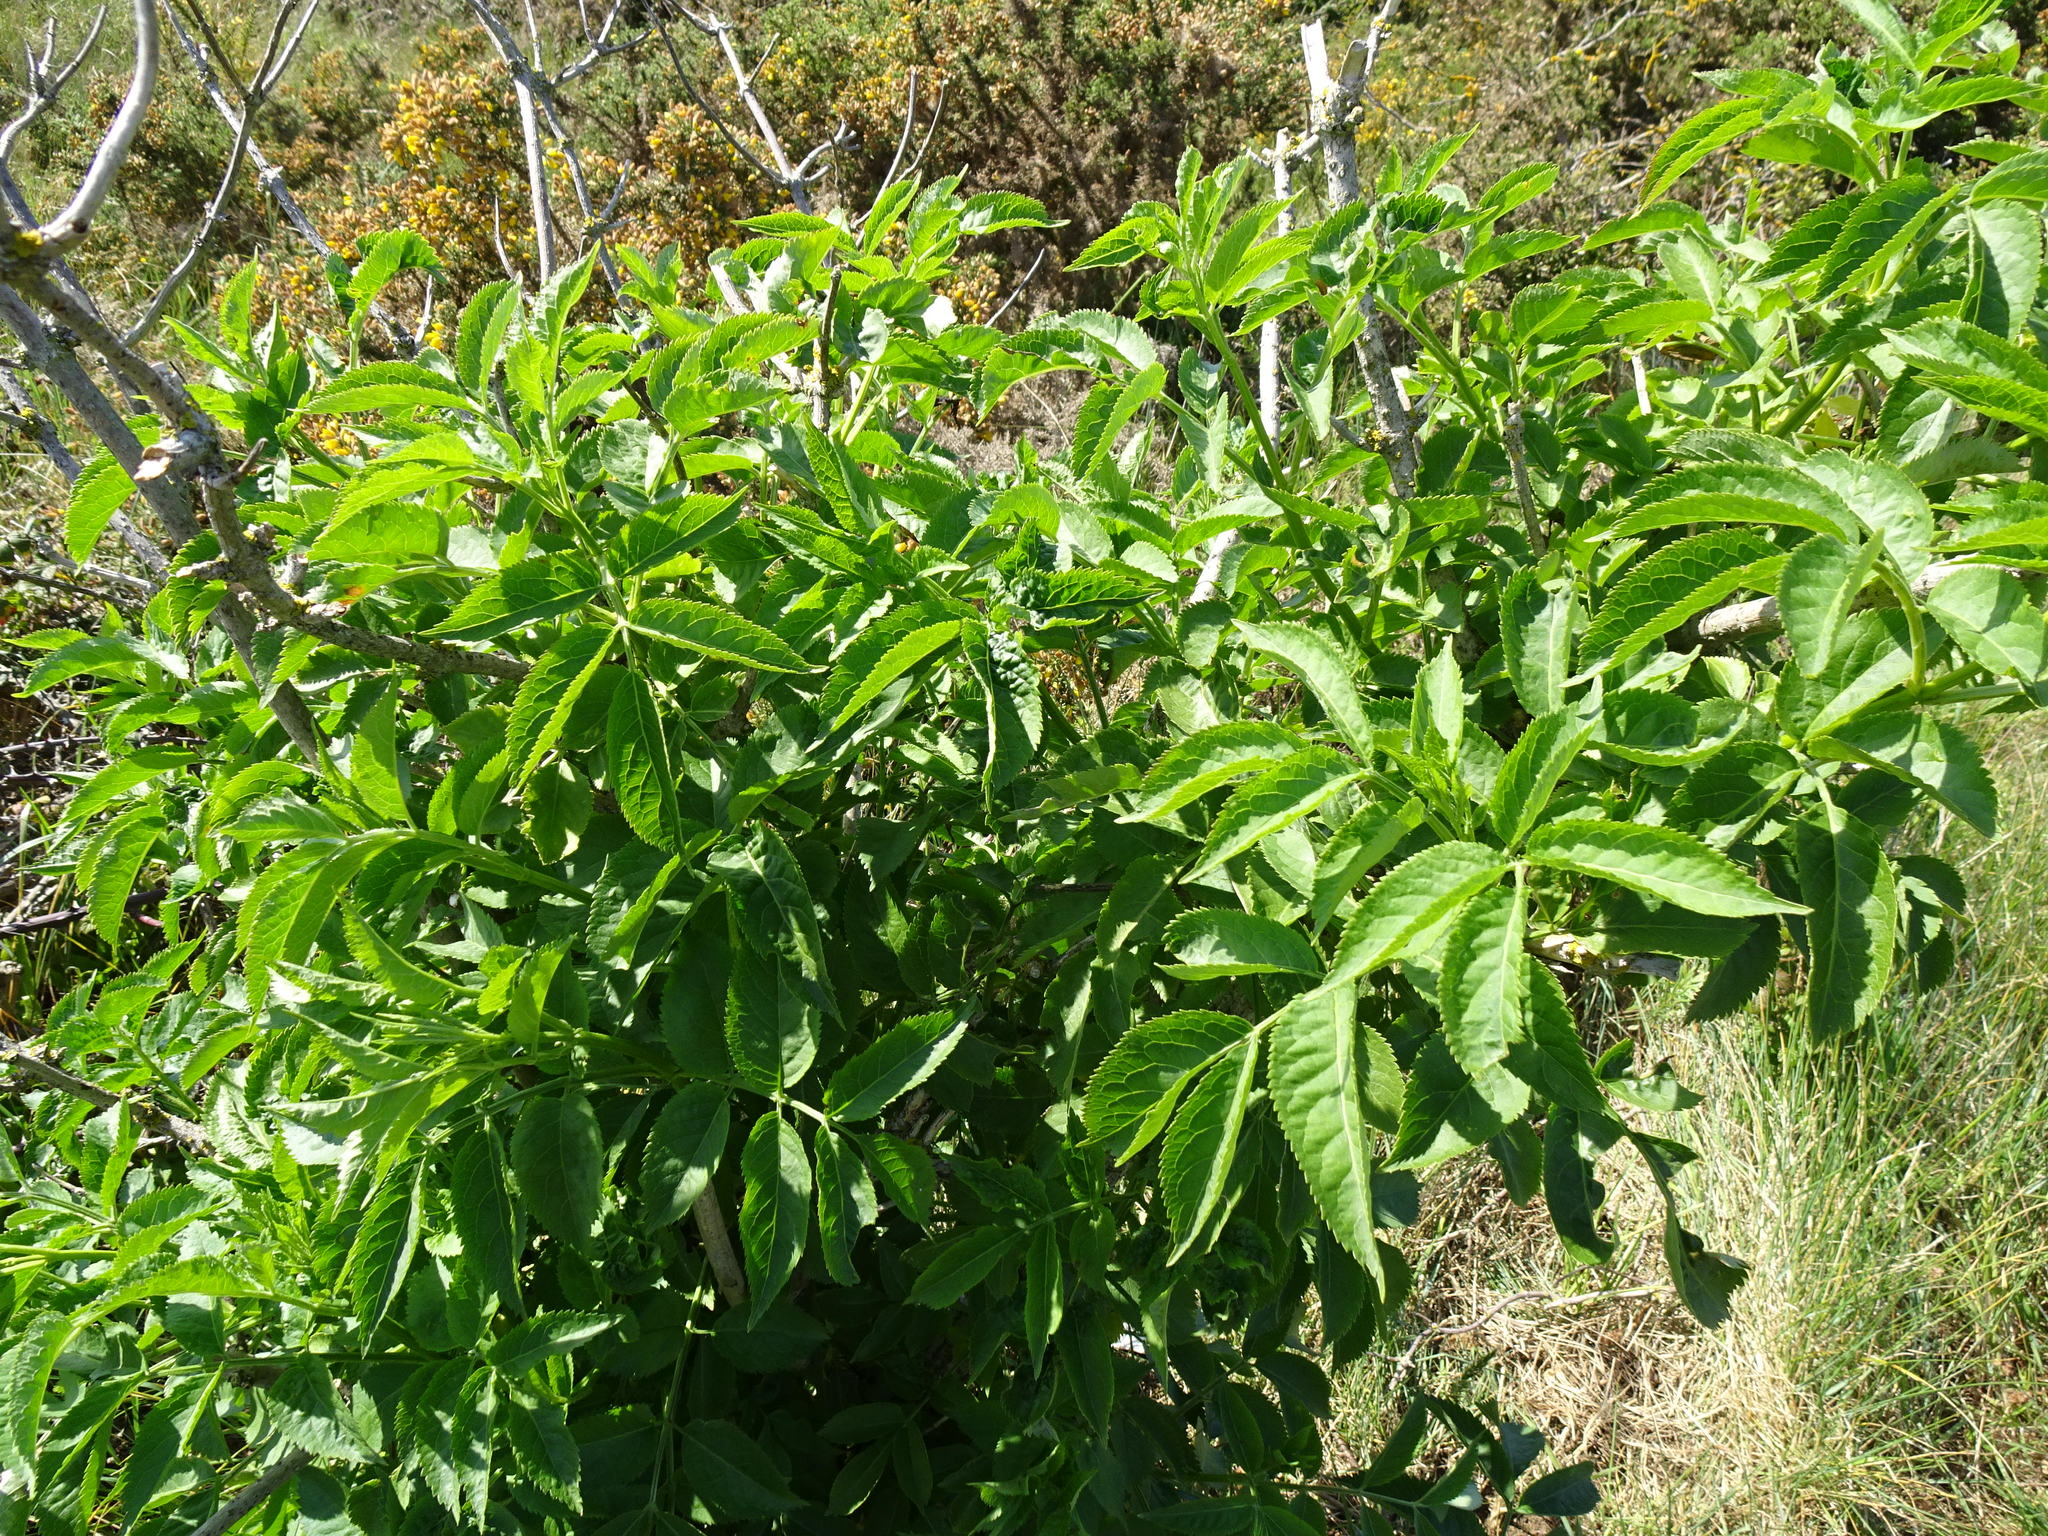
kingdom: Plantae
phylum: Tracheophyta
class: Magnoliopsida
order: Dipsacales
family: Viburnaceae
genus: Sambucus
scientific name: Sambucus nigra
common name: Elder
